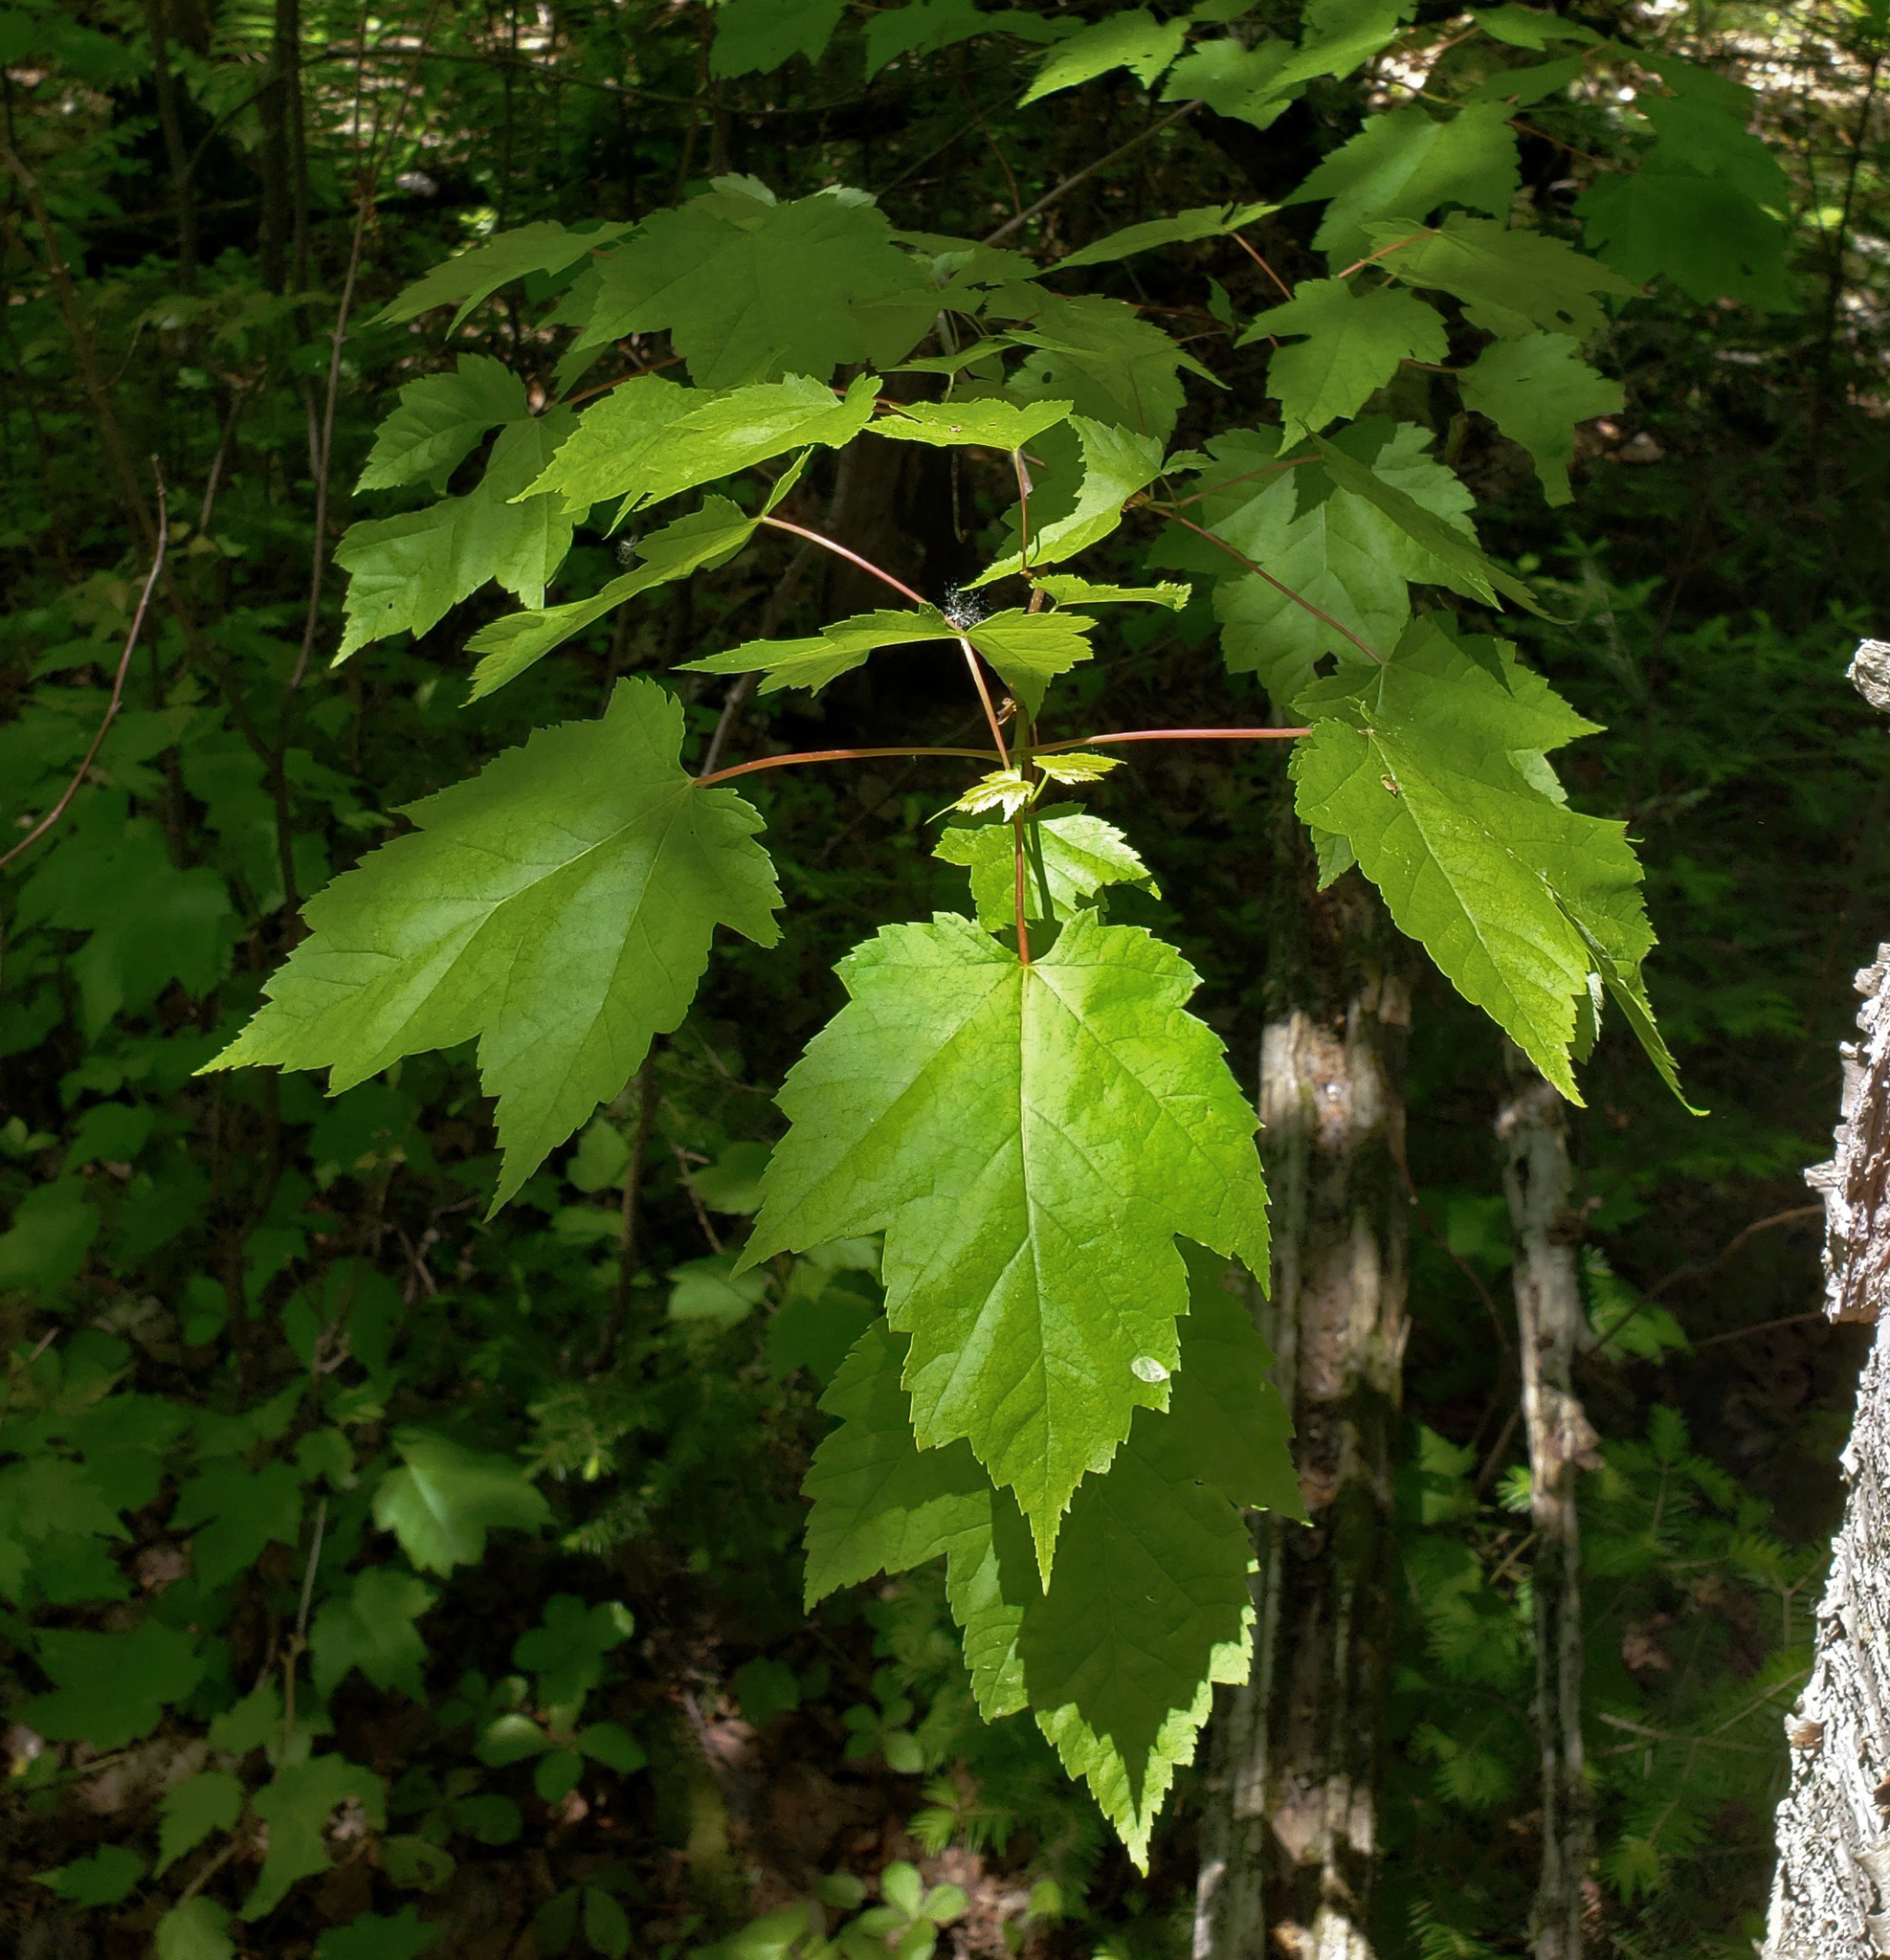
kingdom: Plantae
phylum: Tracheophyta
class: Magnoliopsida
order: Sapindales
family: Sapindaceae
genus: Acer
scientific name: Acer rubrum
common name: Red maple
